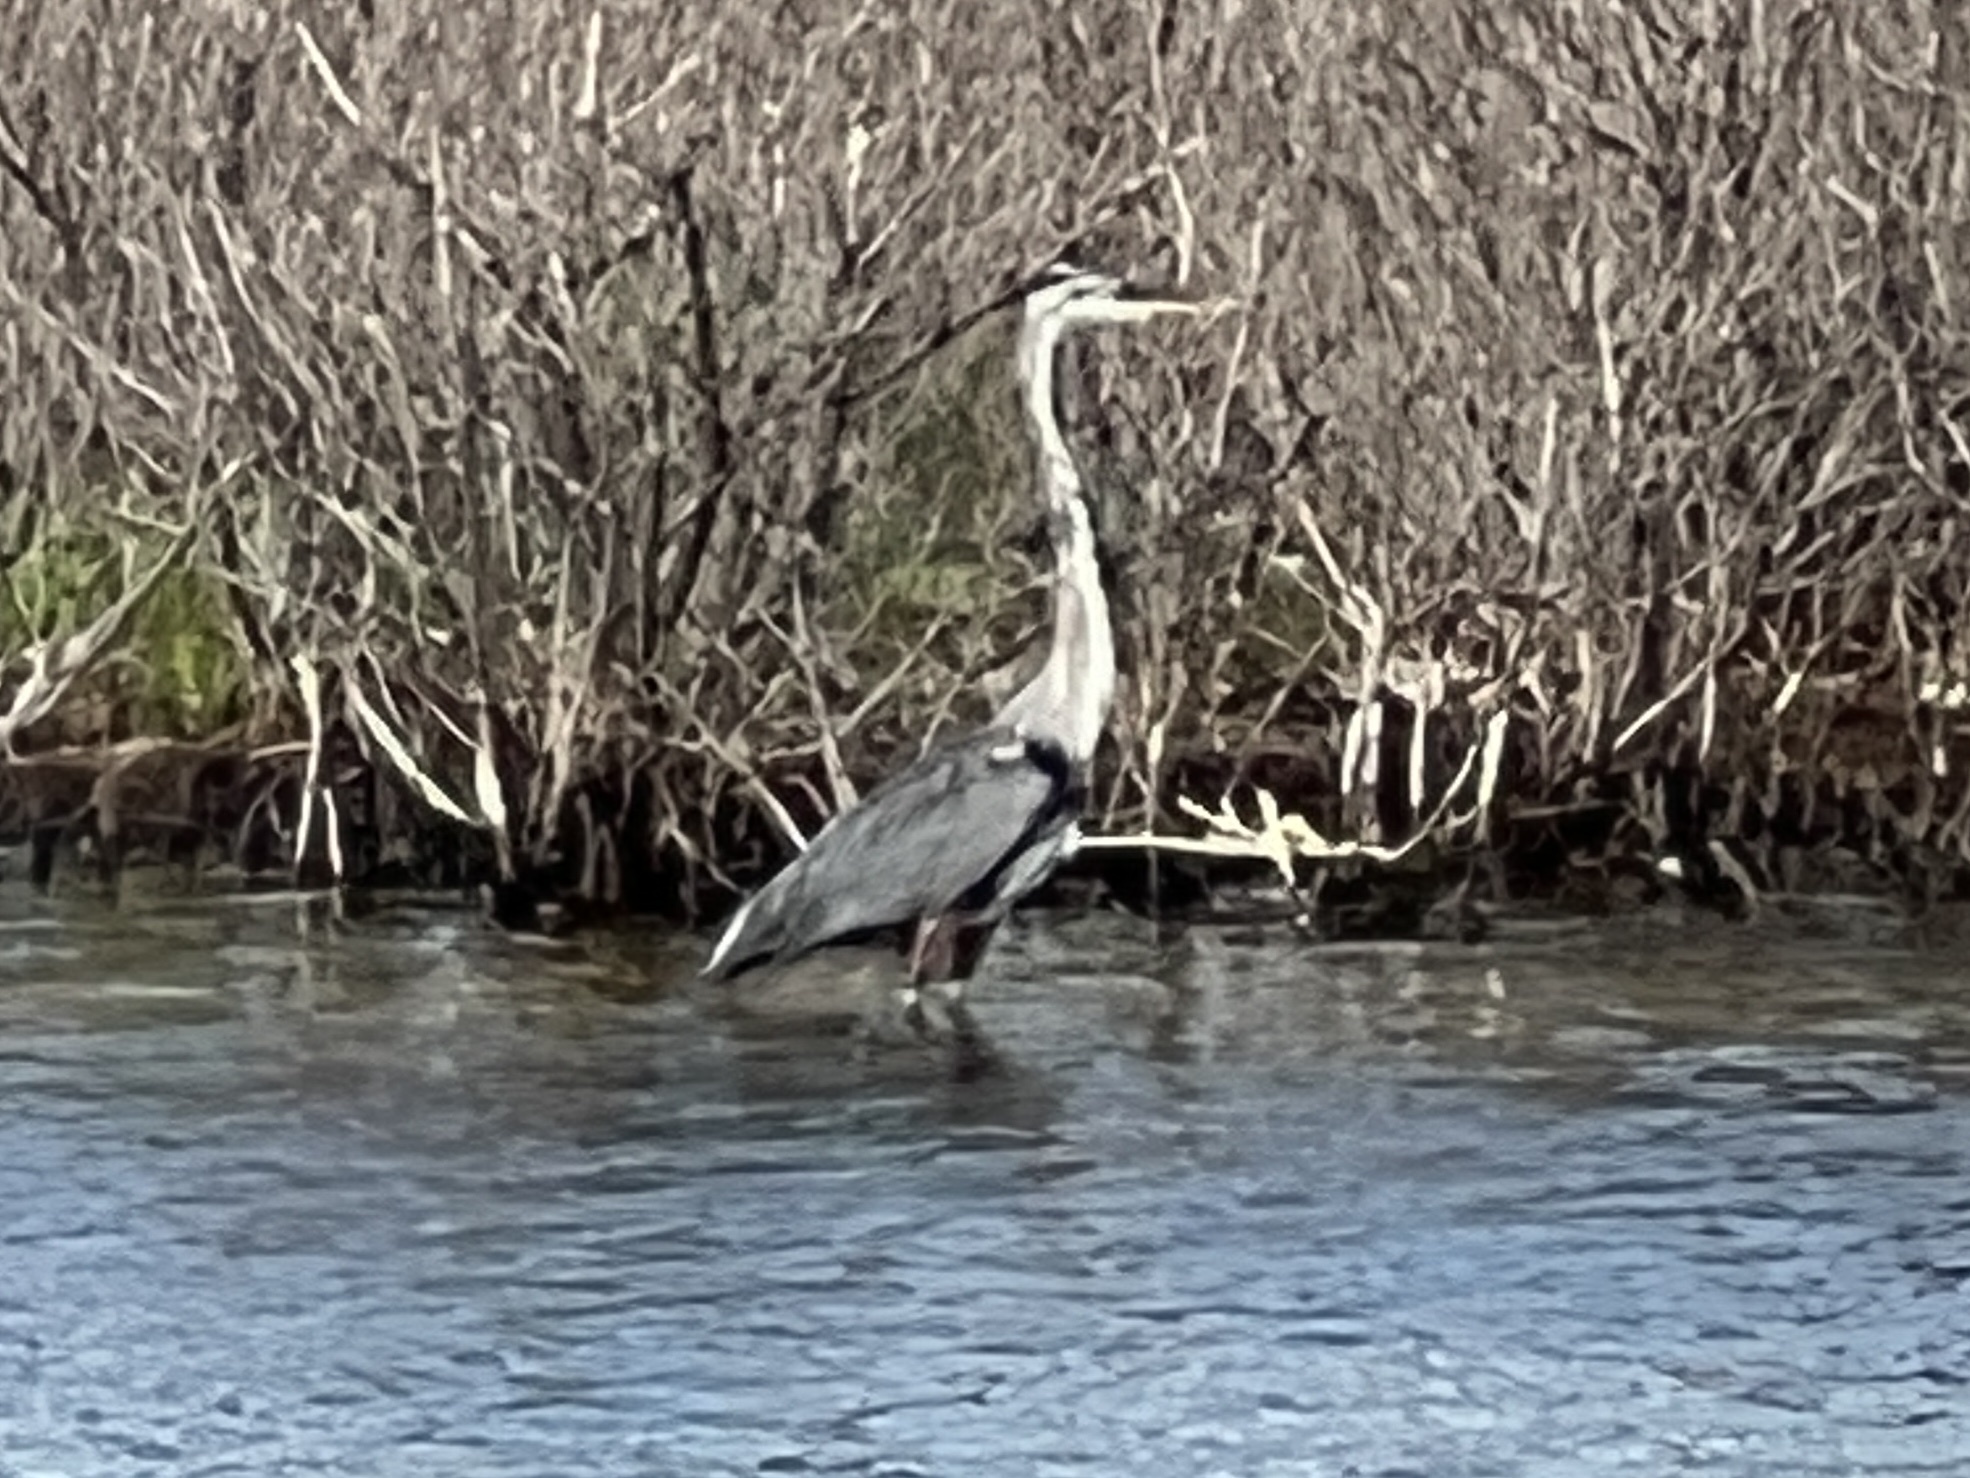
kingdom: Animalia
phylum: Chordata
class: Aves
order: Pelecaniformes
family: Ardeidae
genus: Ardea
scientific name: Ardea herodias
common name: Great blue heron
